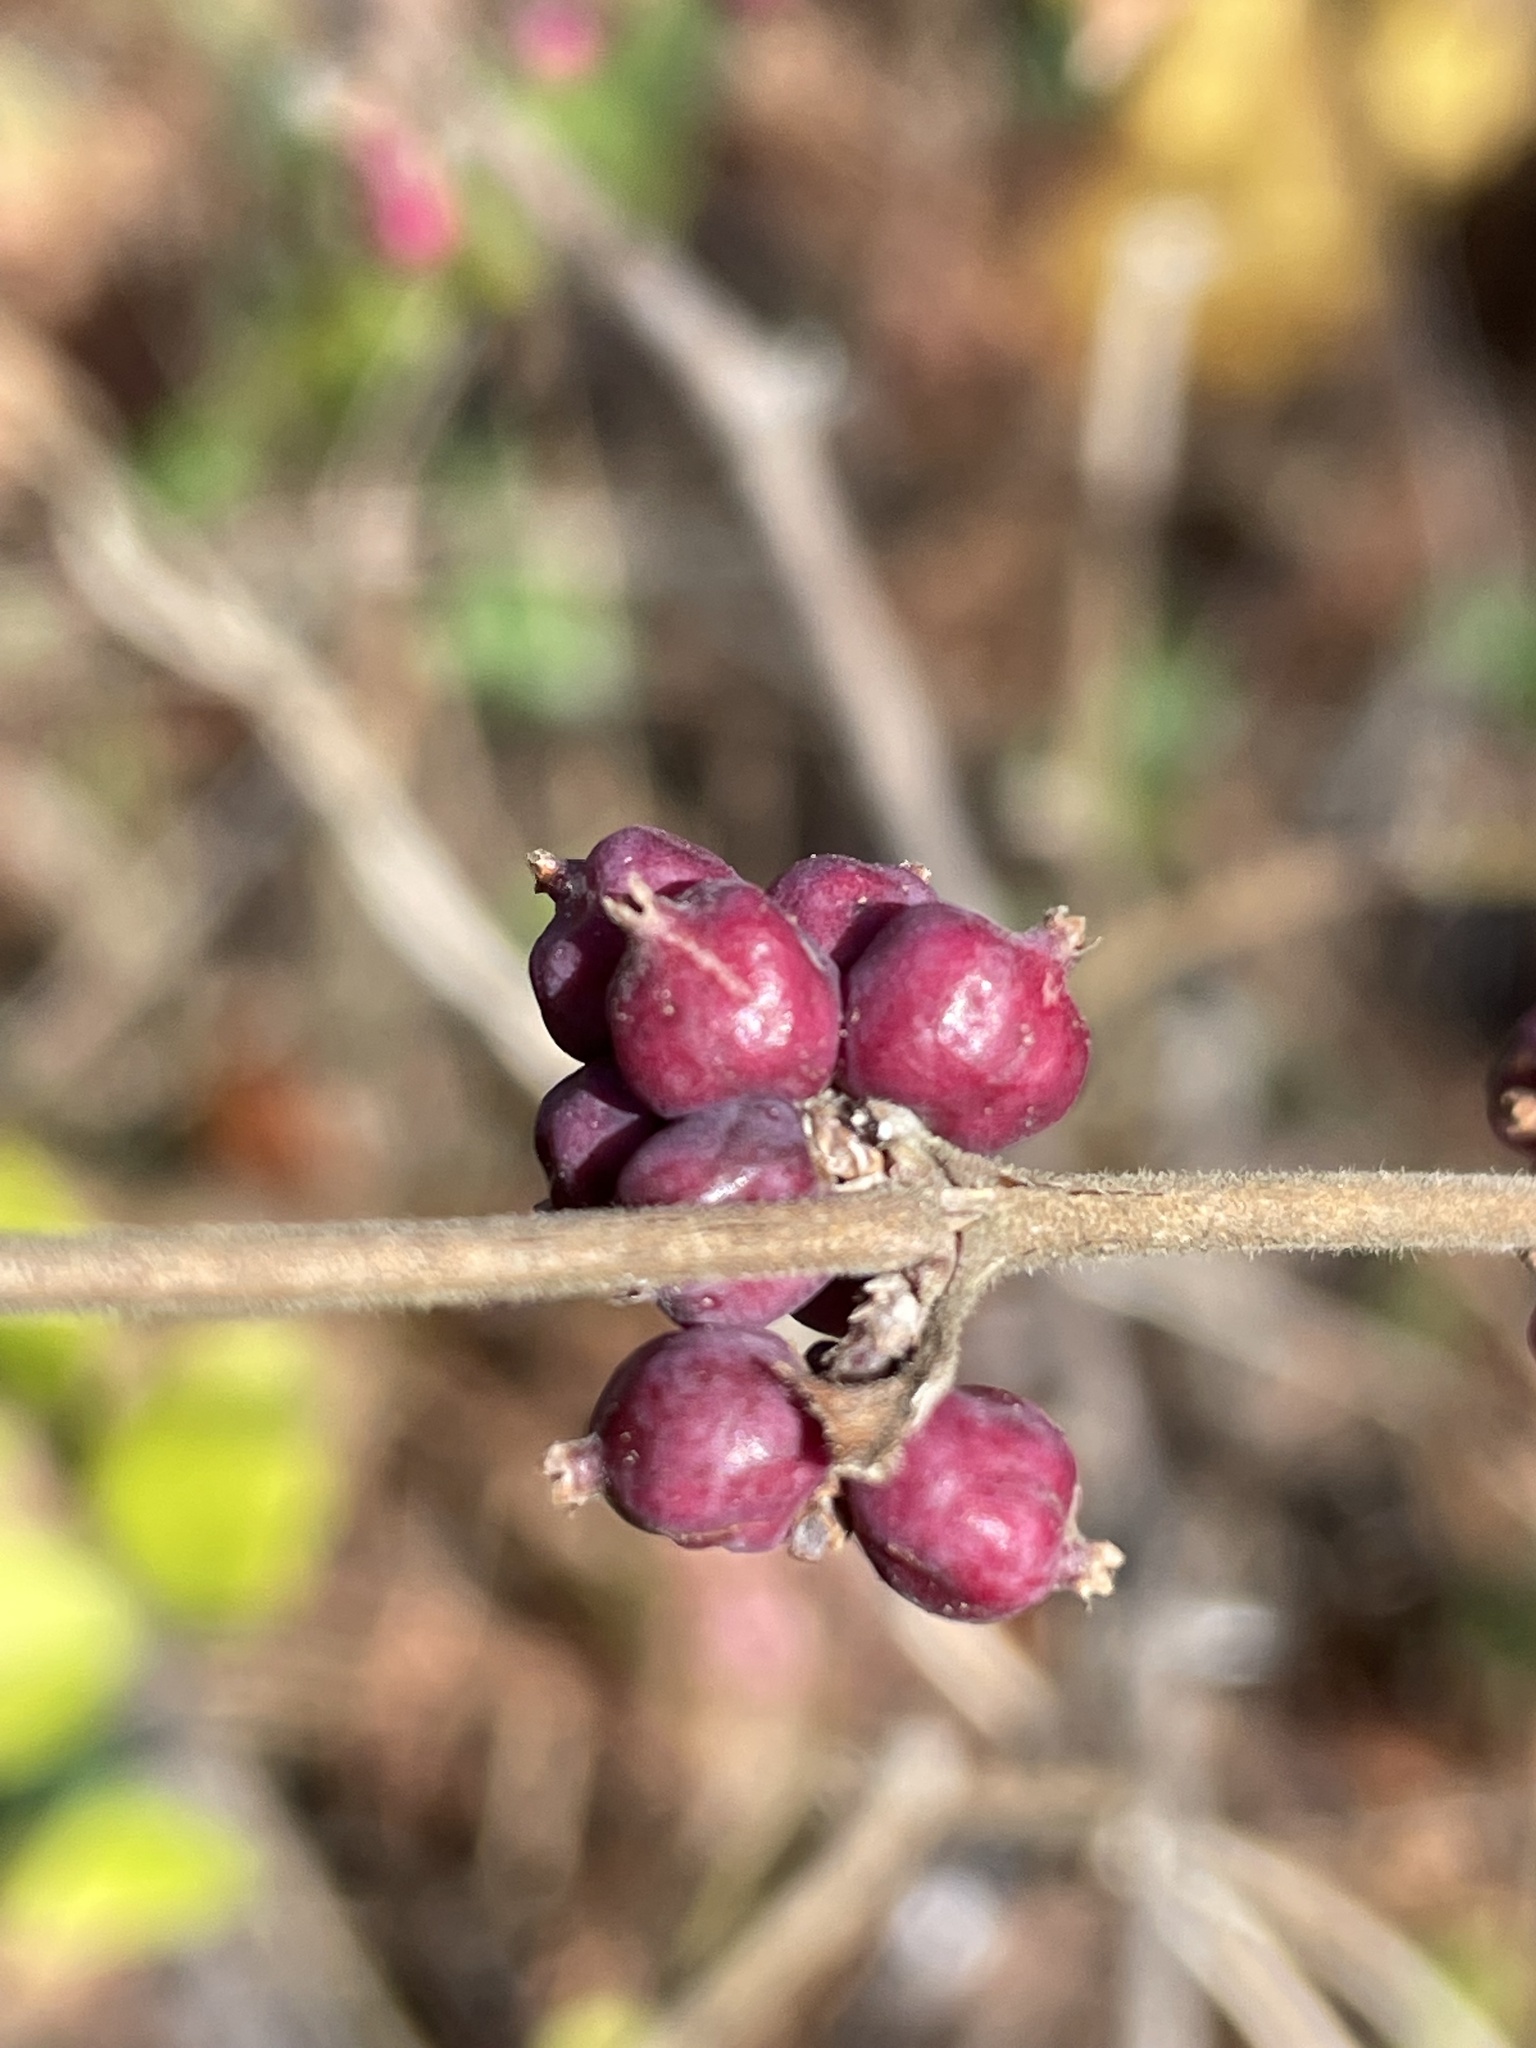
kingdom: Plantae
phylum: Tracheophyta
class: Magnoliopsida
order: Dipsacales
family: Caprifoliaceae
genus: Symphoricarpos
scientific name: Symphoricarpos orbiculatus
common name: Coralberry
